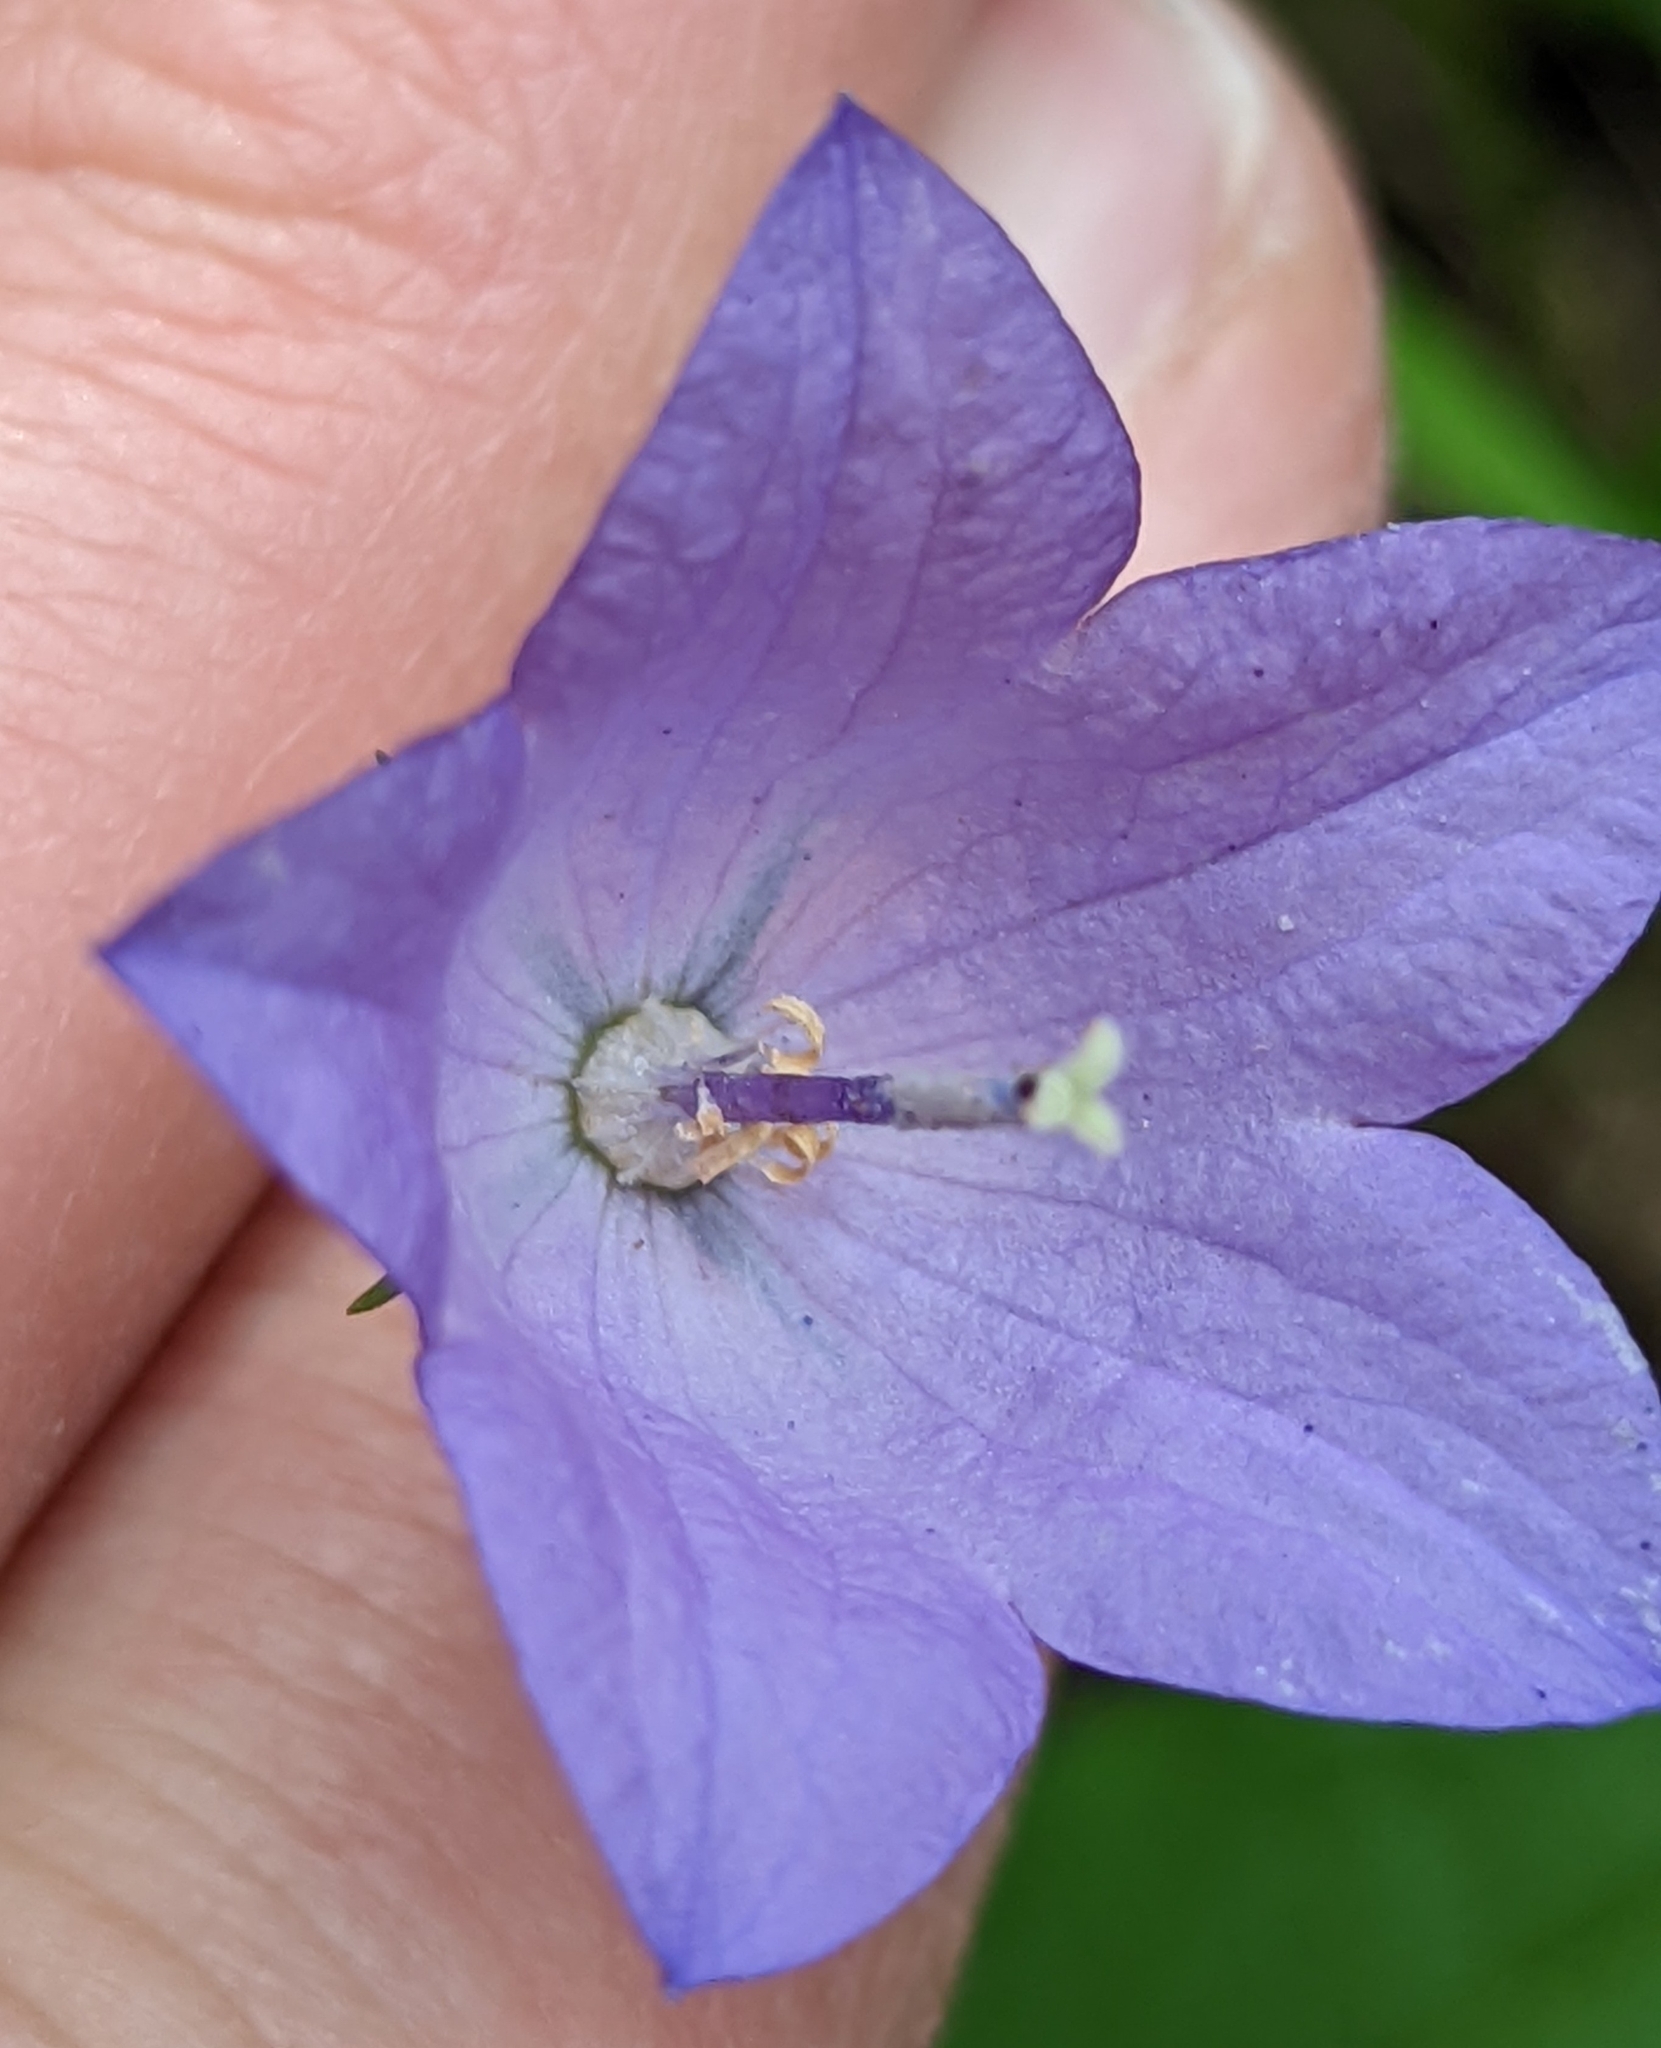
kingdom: Plantae
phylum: Tracheophyta
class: Magnoliopsida
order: Asterales
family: Campanulaceae
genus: Campanula
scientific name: Campanula petiolata
